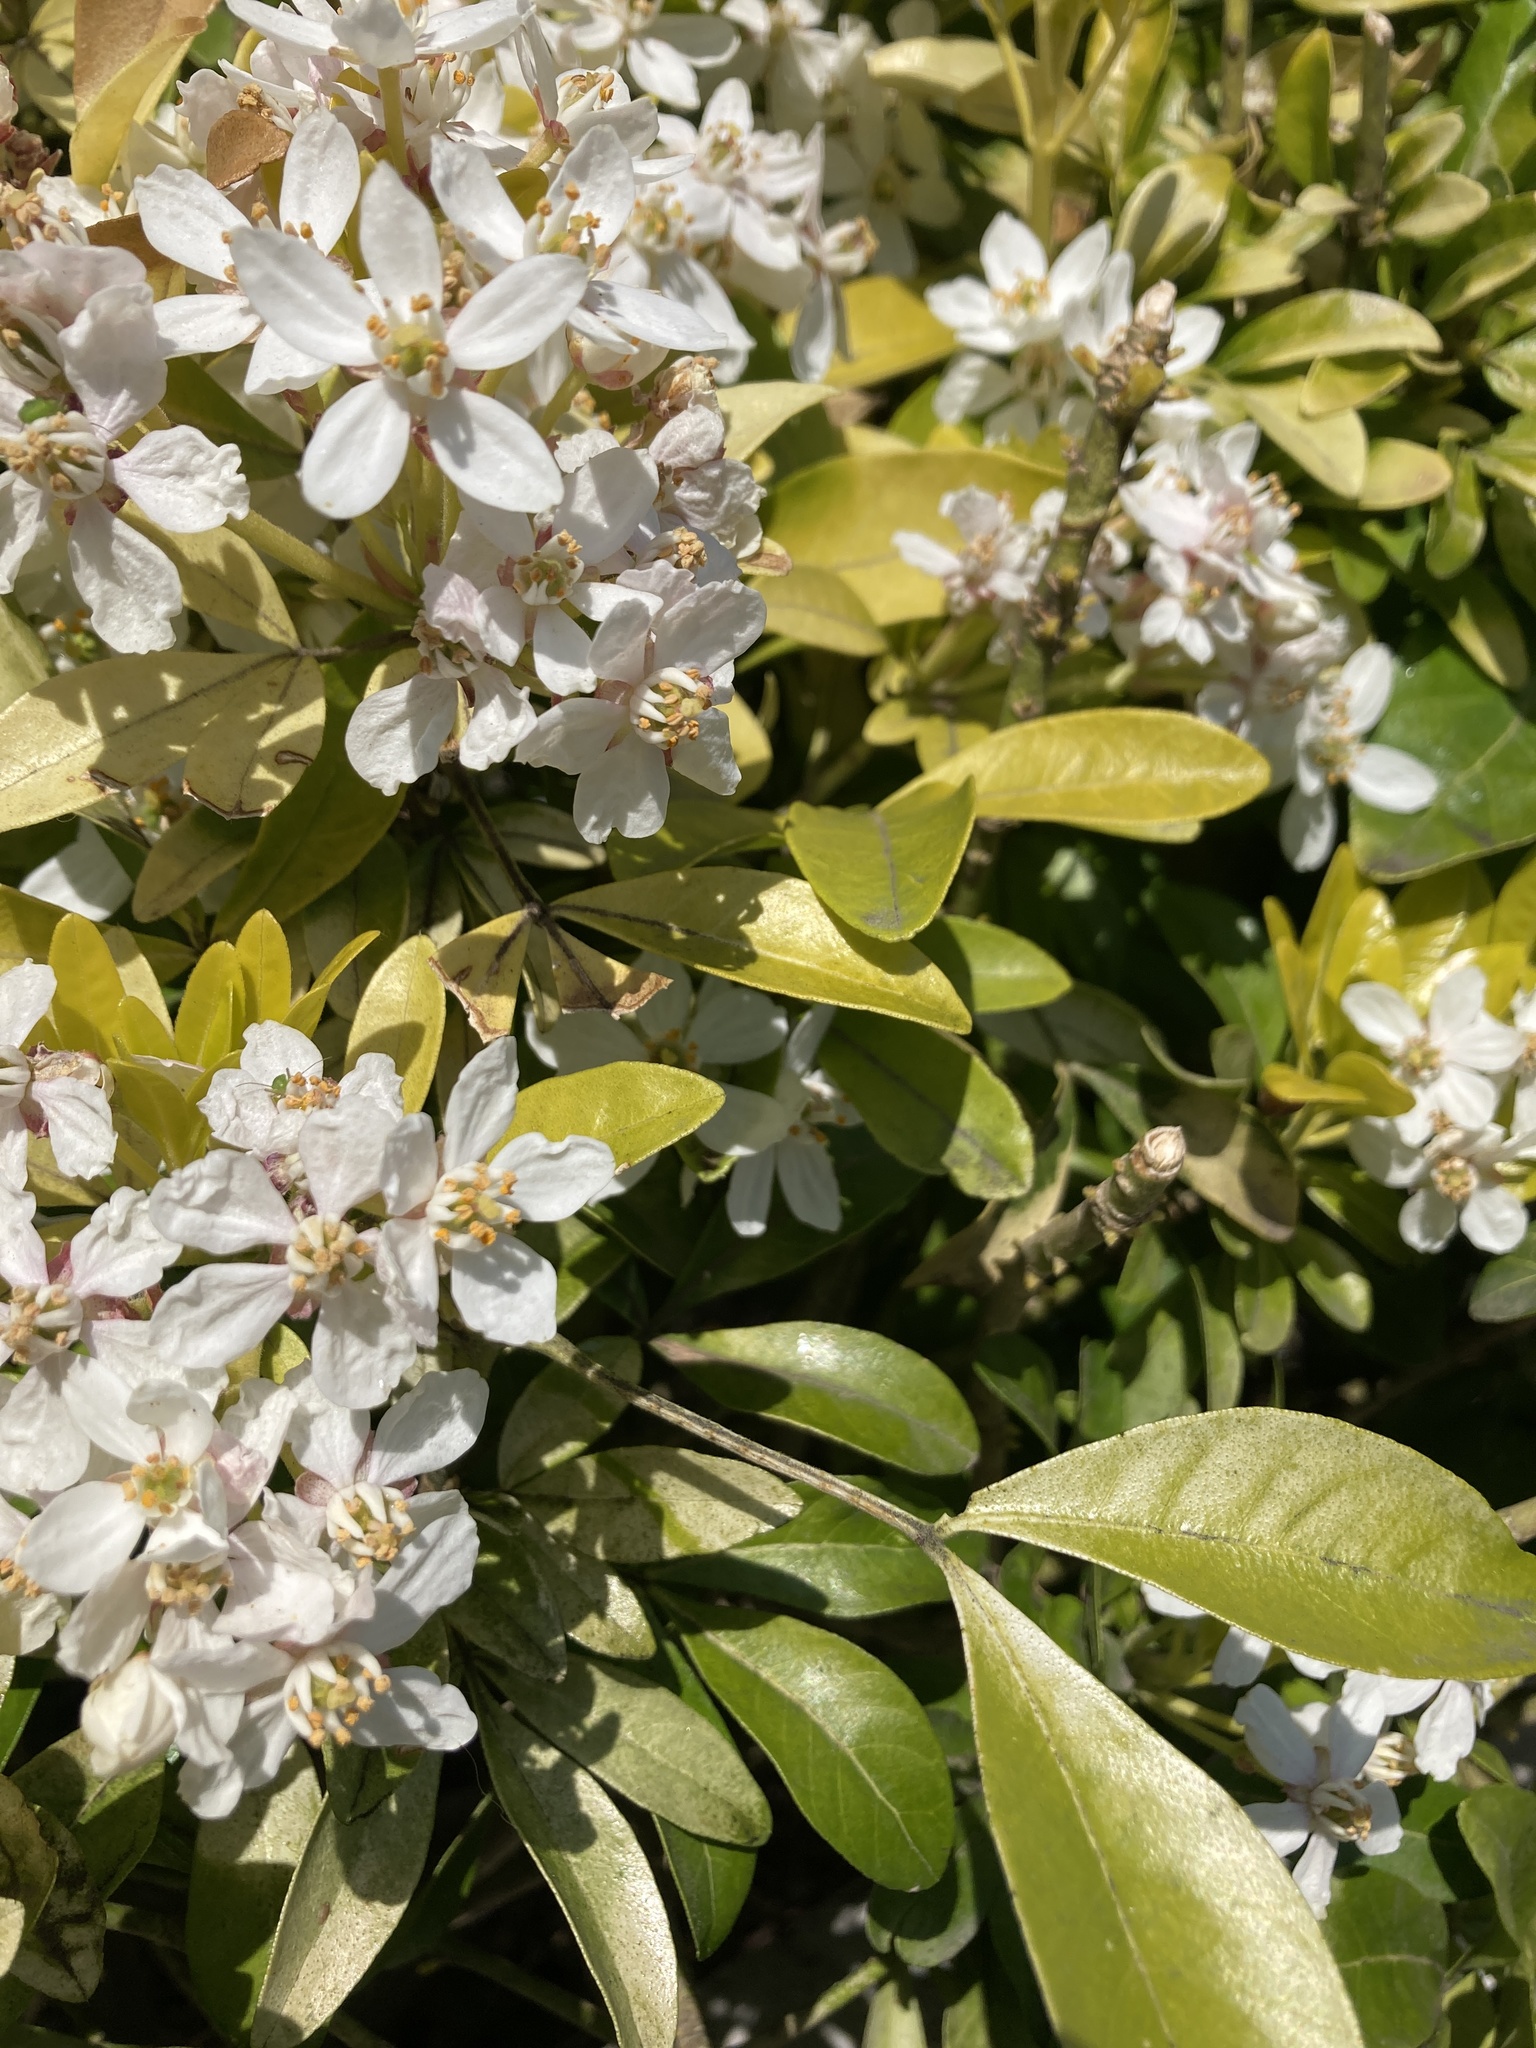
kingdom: Plantae
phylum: Tracheophyta
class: Magnoliopsida
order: Sapindales
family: Rutaceae
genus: Choisya
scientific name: Choisya ternata
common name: Mexican orange
